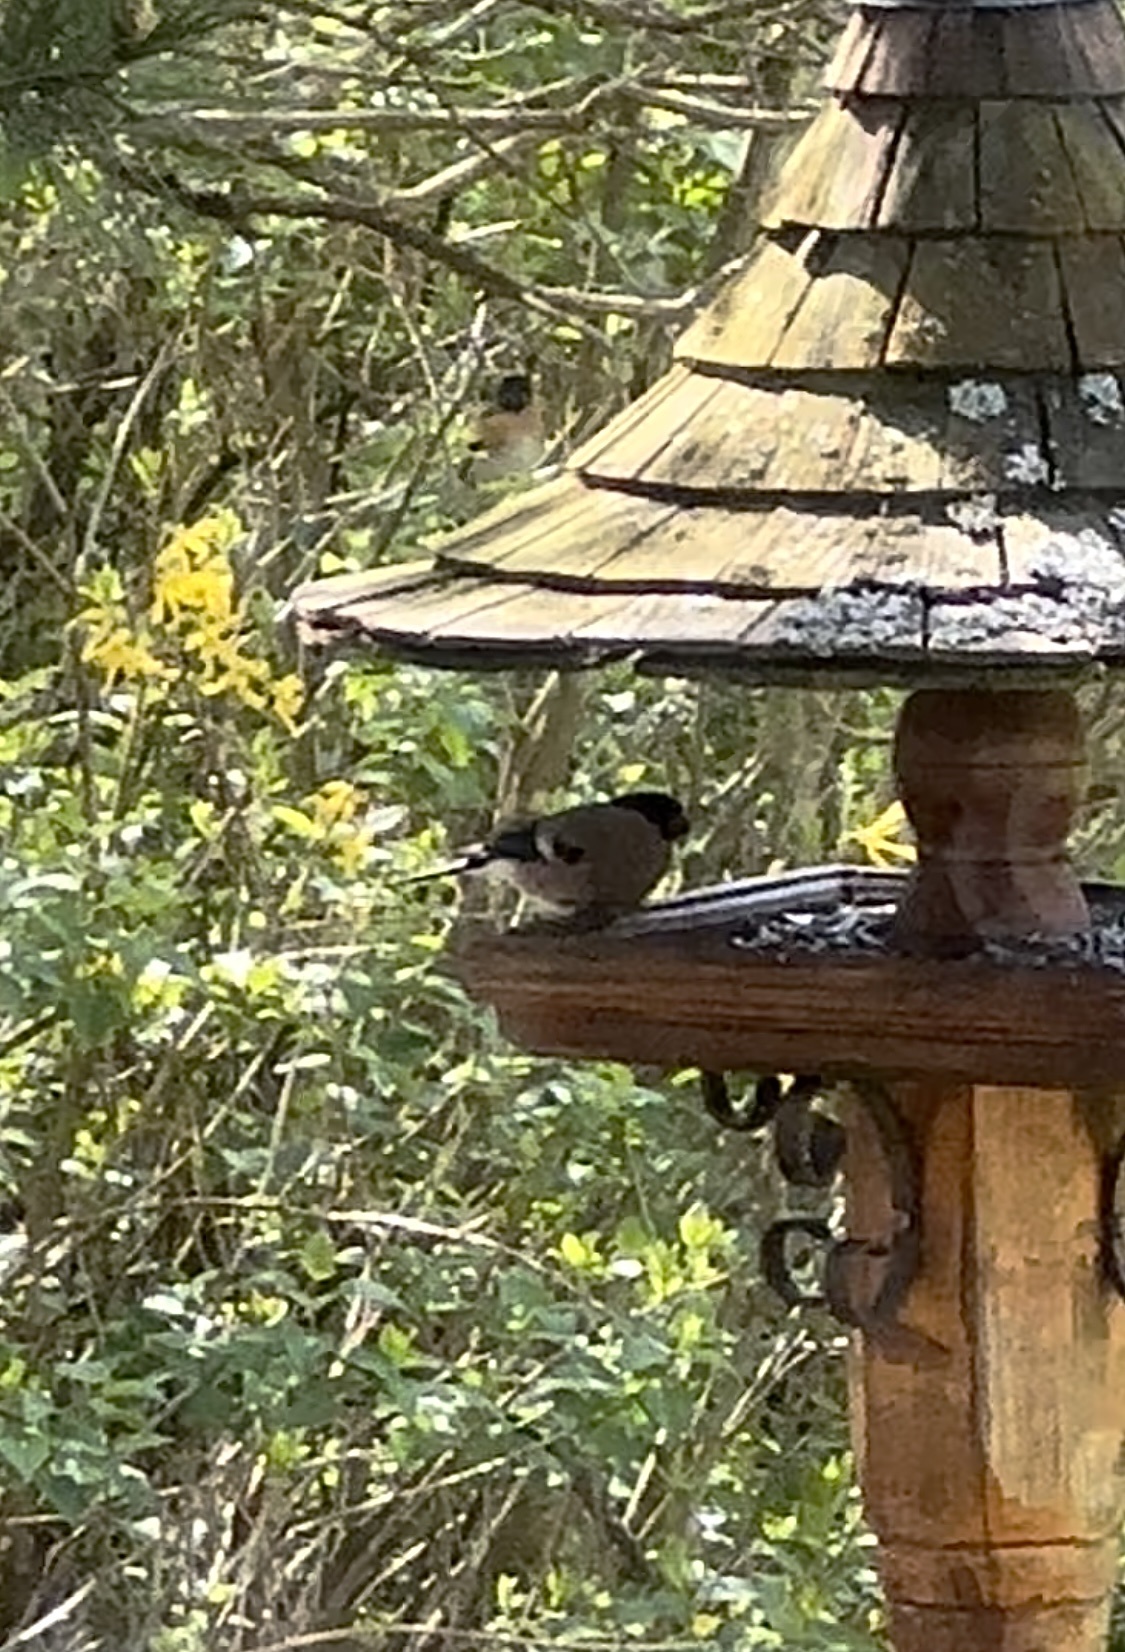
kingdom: Animalia
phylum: Chordata
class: Aves
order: Passeriformes
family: Fringillidae
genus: Pyrrhula
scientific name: Pyrrhula pyrrhula
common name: Eurasian bullfinch
